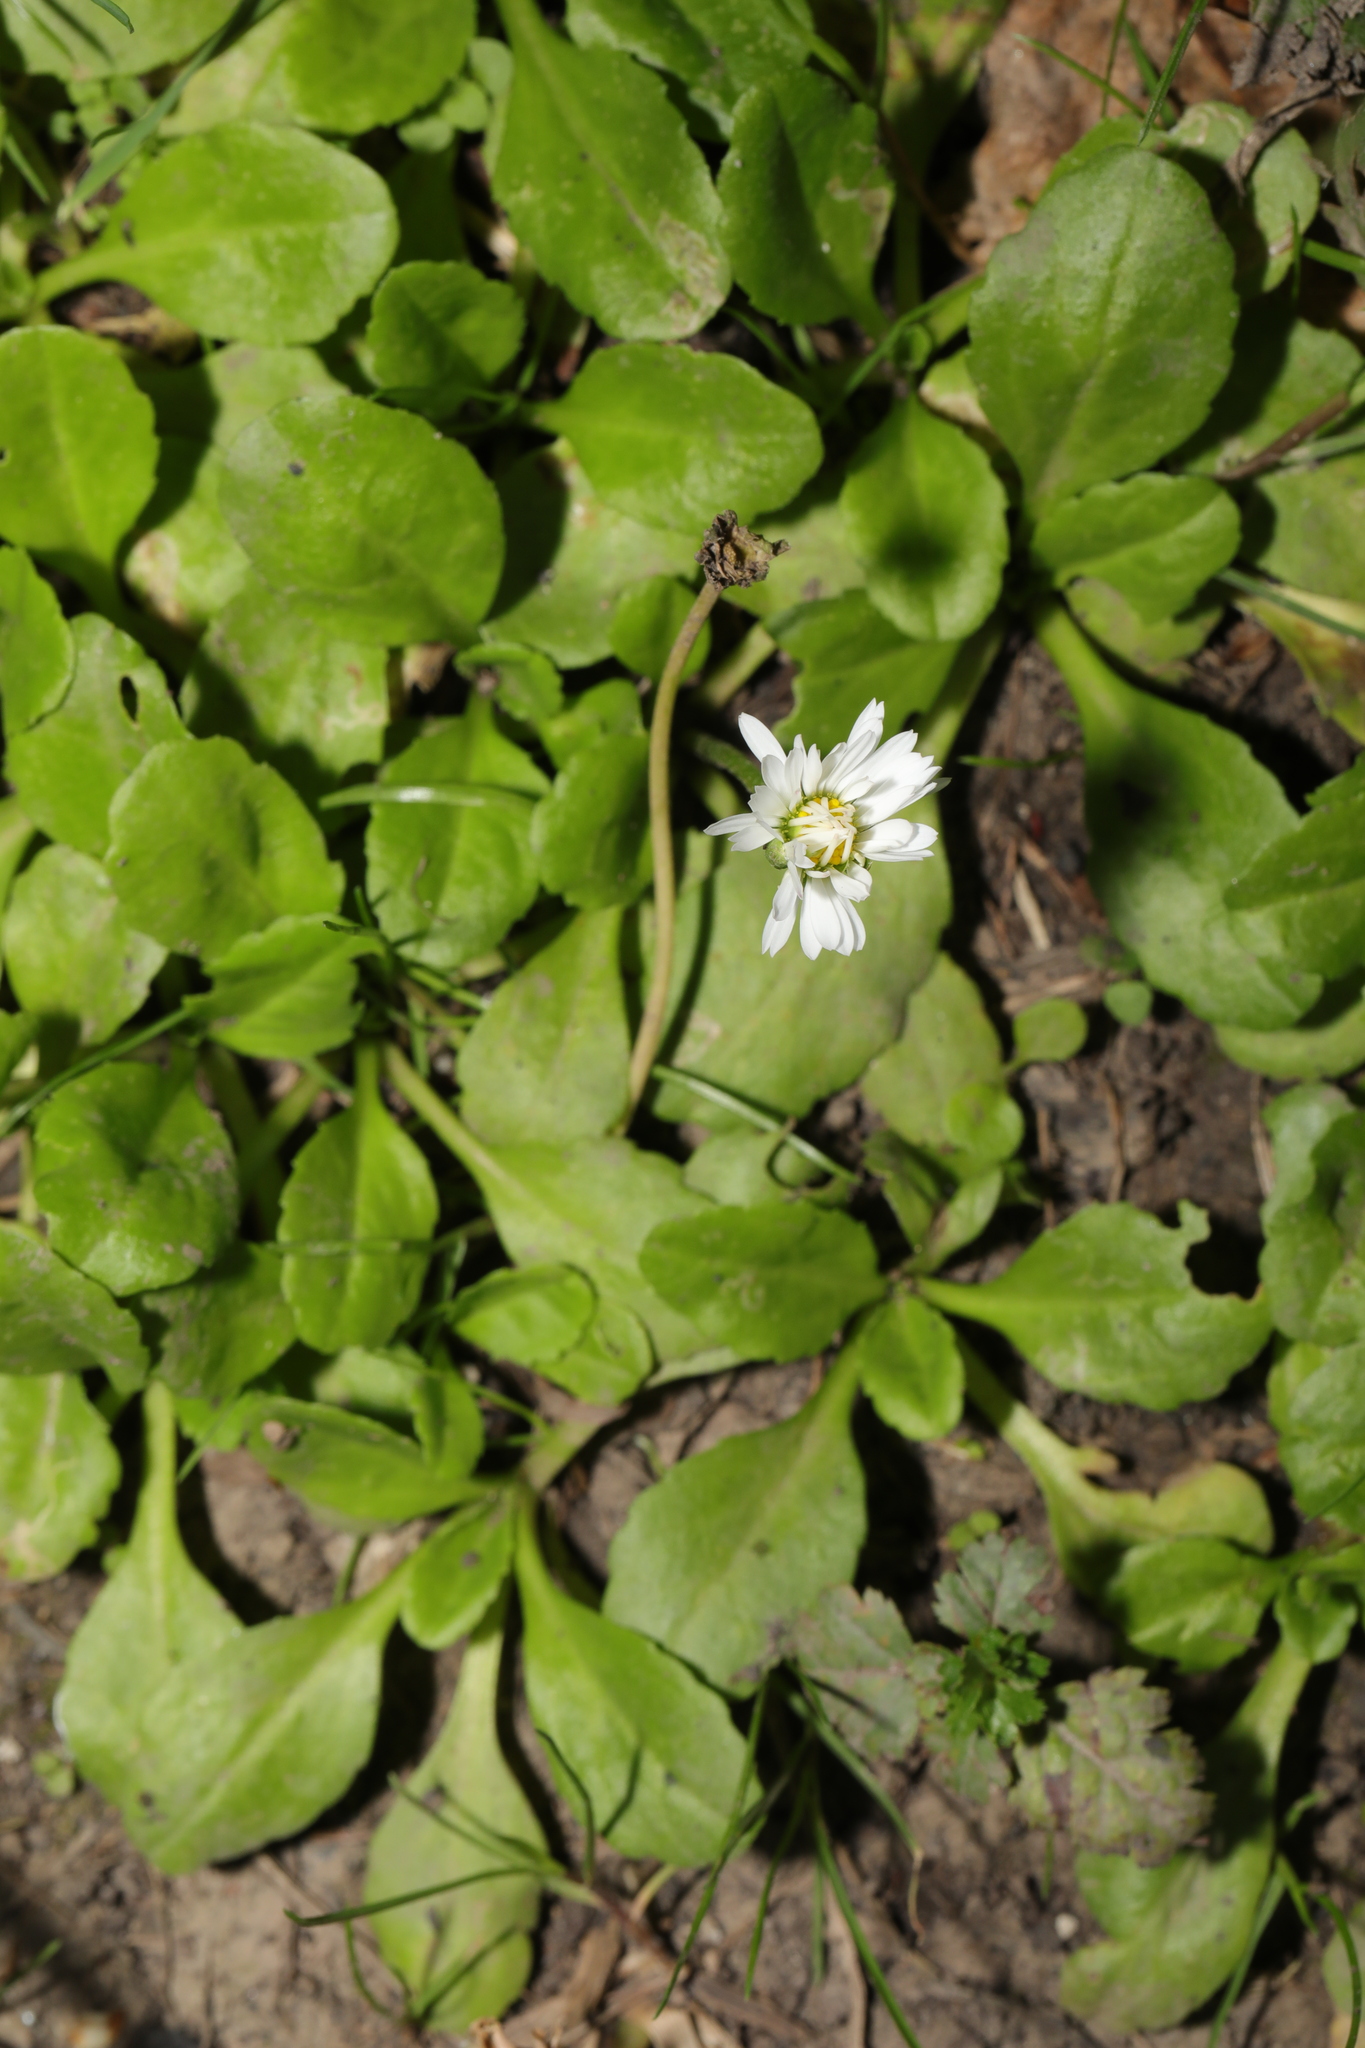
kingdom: Plantae
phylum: Tracheophyta
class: Magnoliopsida
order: Asterales
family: Asteraceae
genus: Bellis
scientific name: Bellis perennis
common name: Lawndaisy
